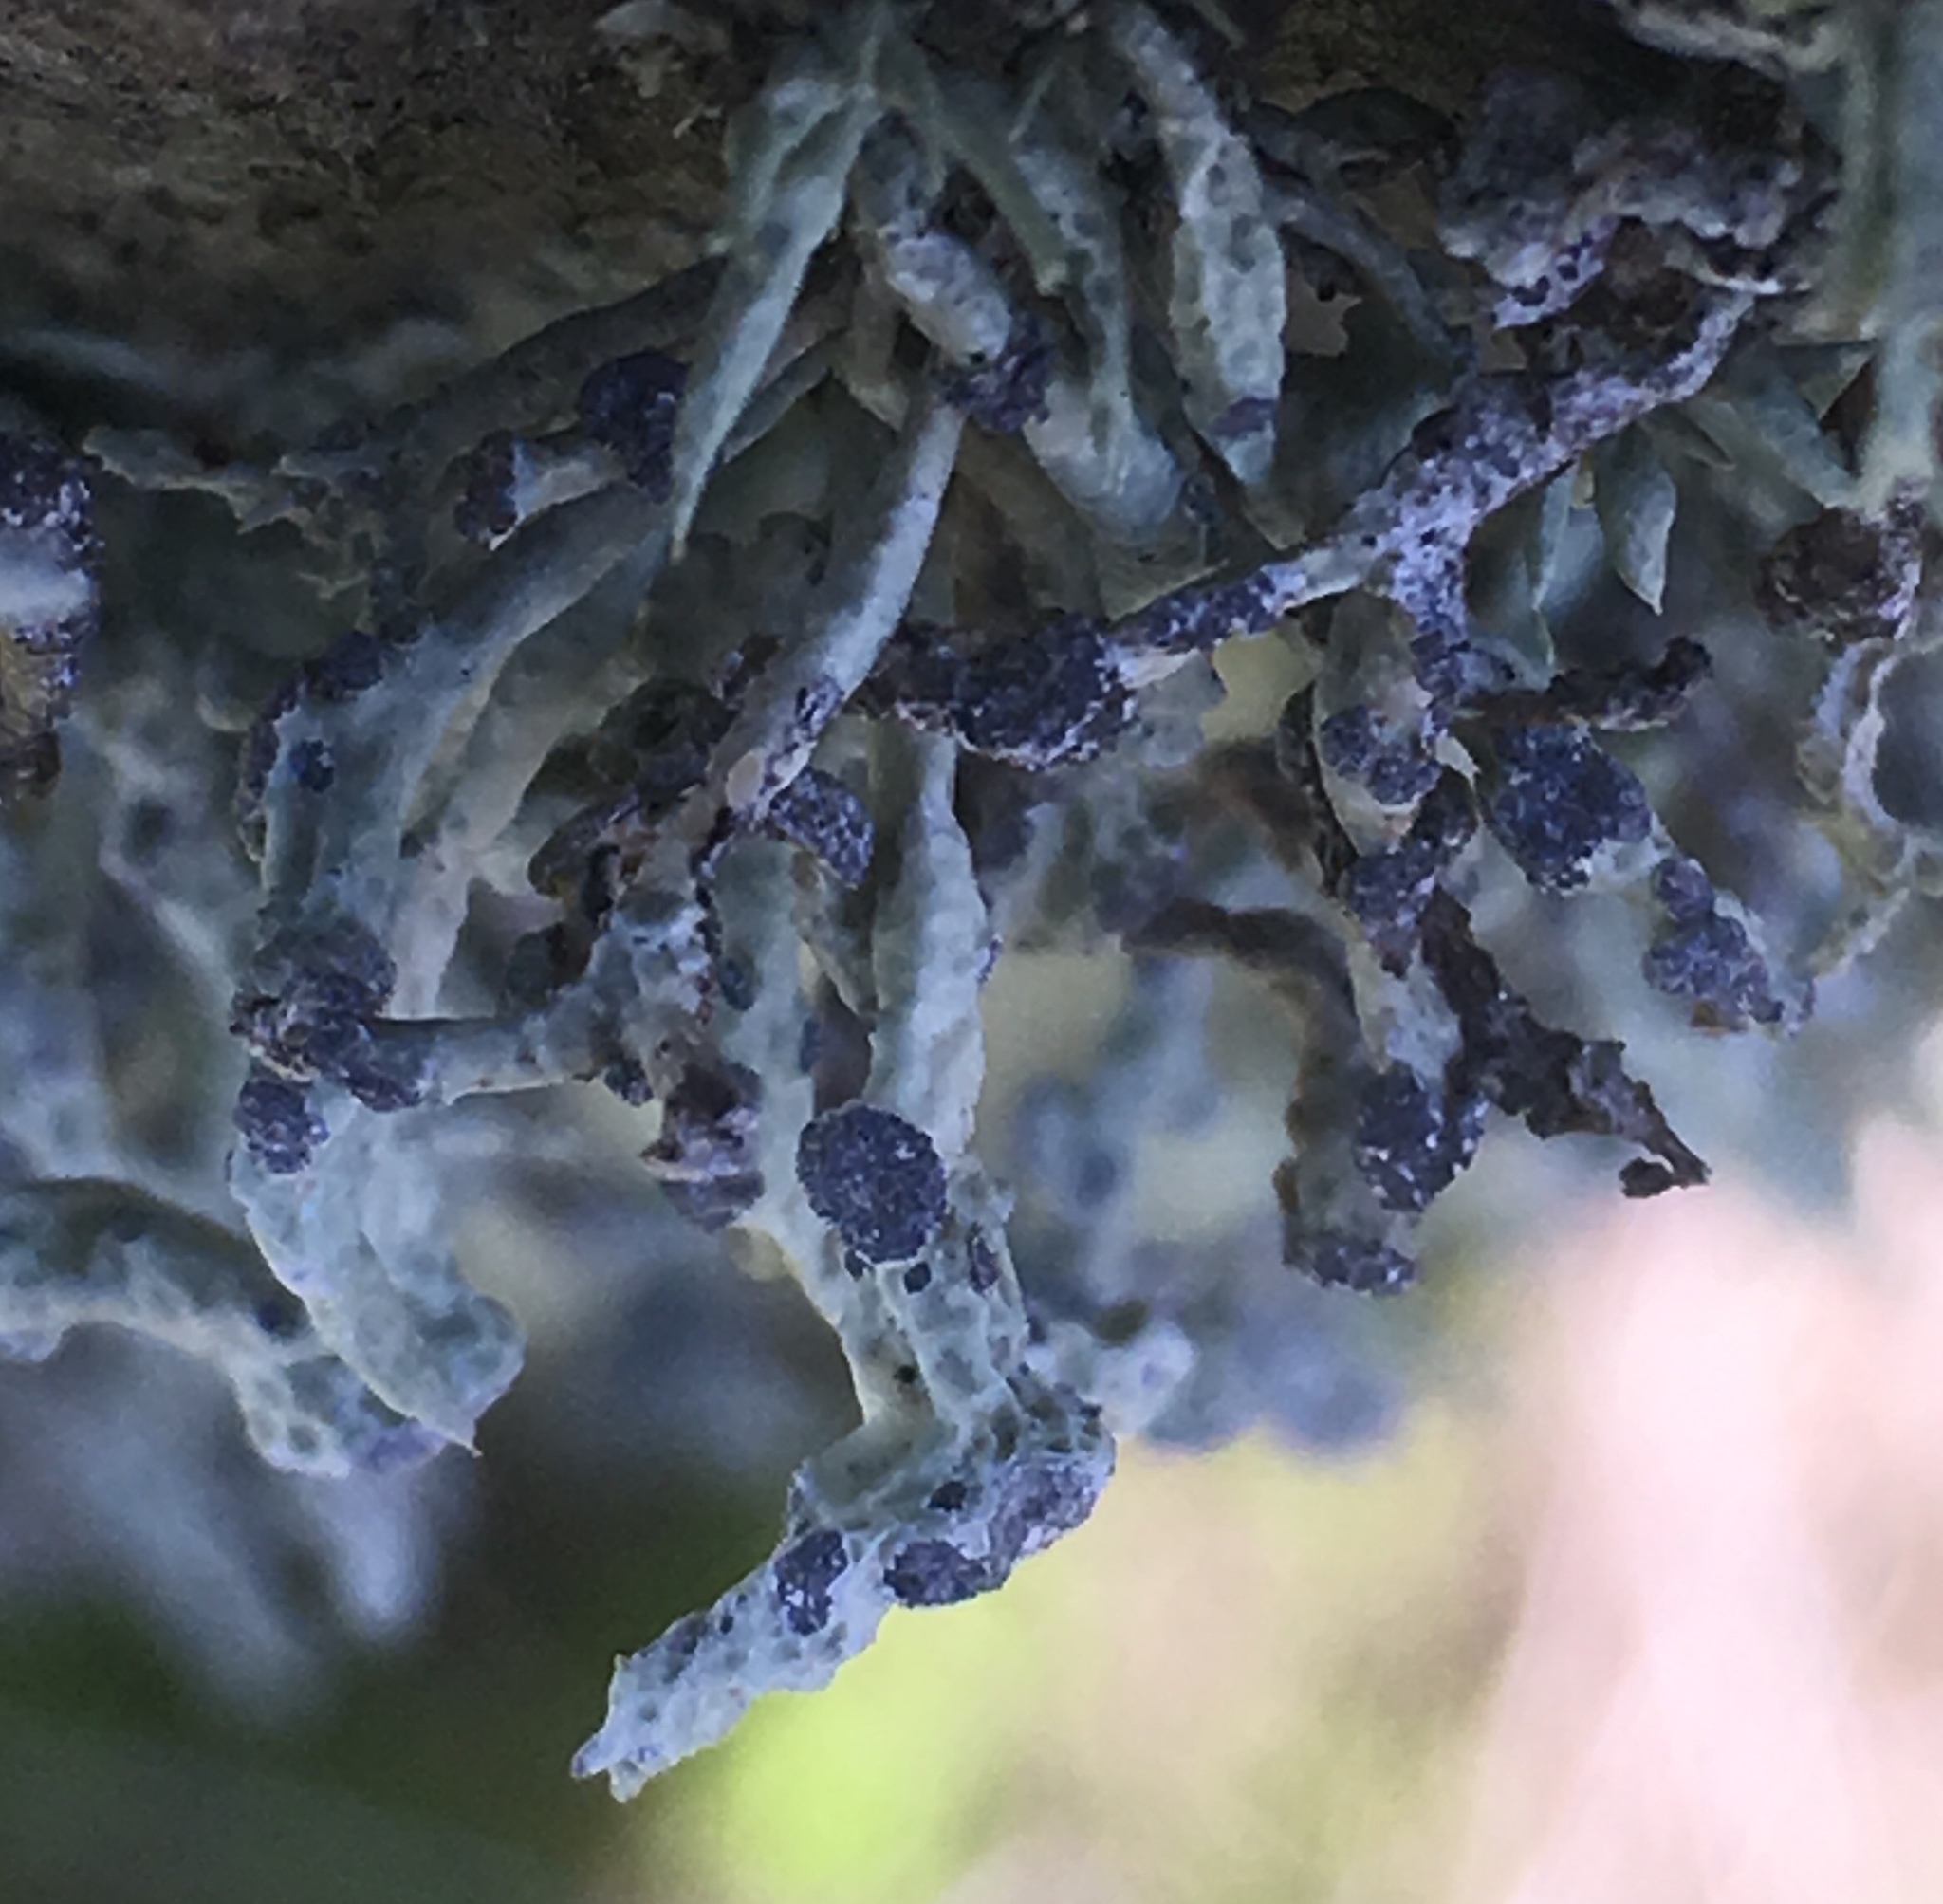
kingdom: Fungi
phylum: Ascomycota
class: Lecanoromycetes
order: Lecanorales
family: Ramalinaceae
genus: Niebla
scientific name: Niebla cephalota
